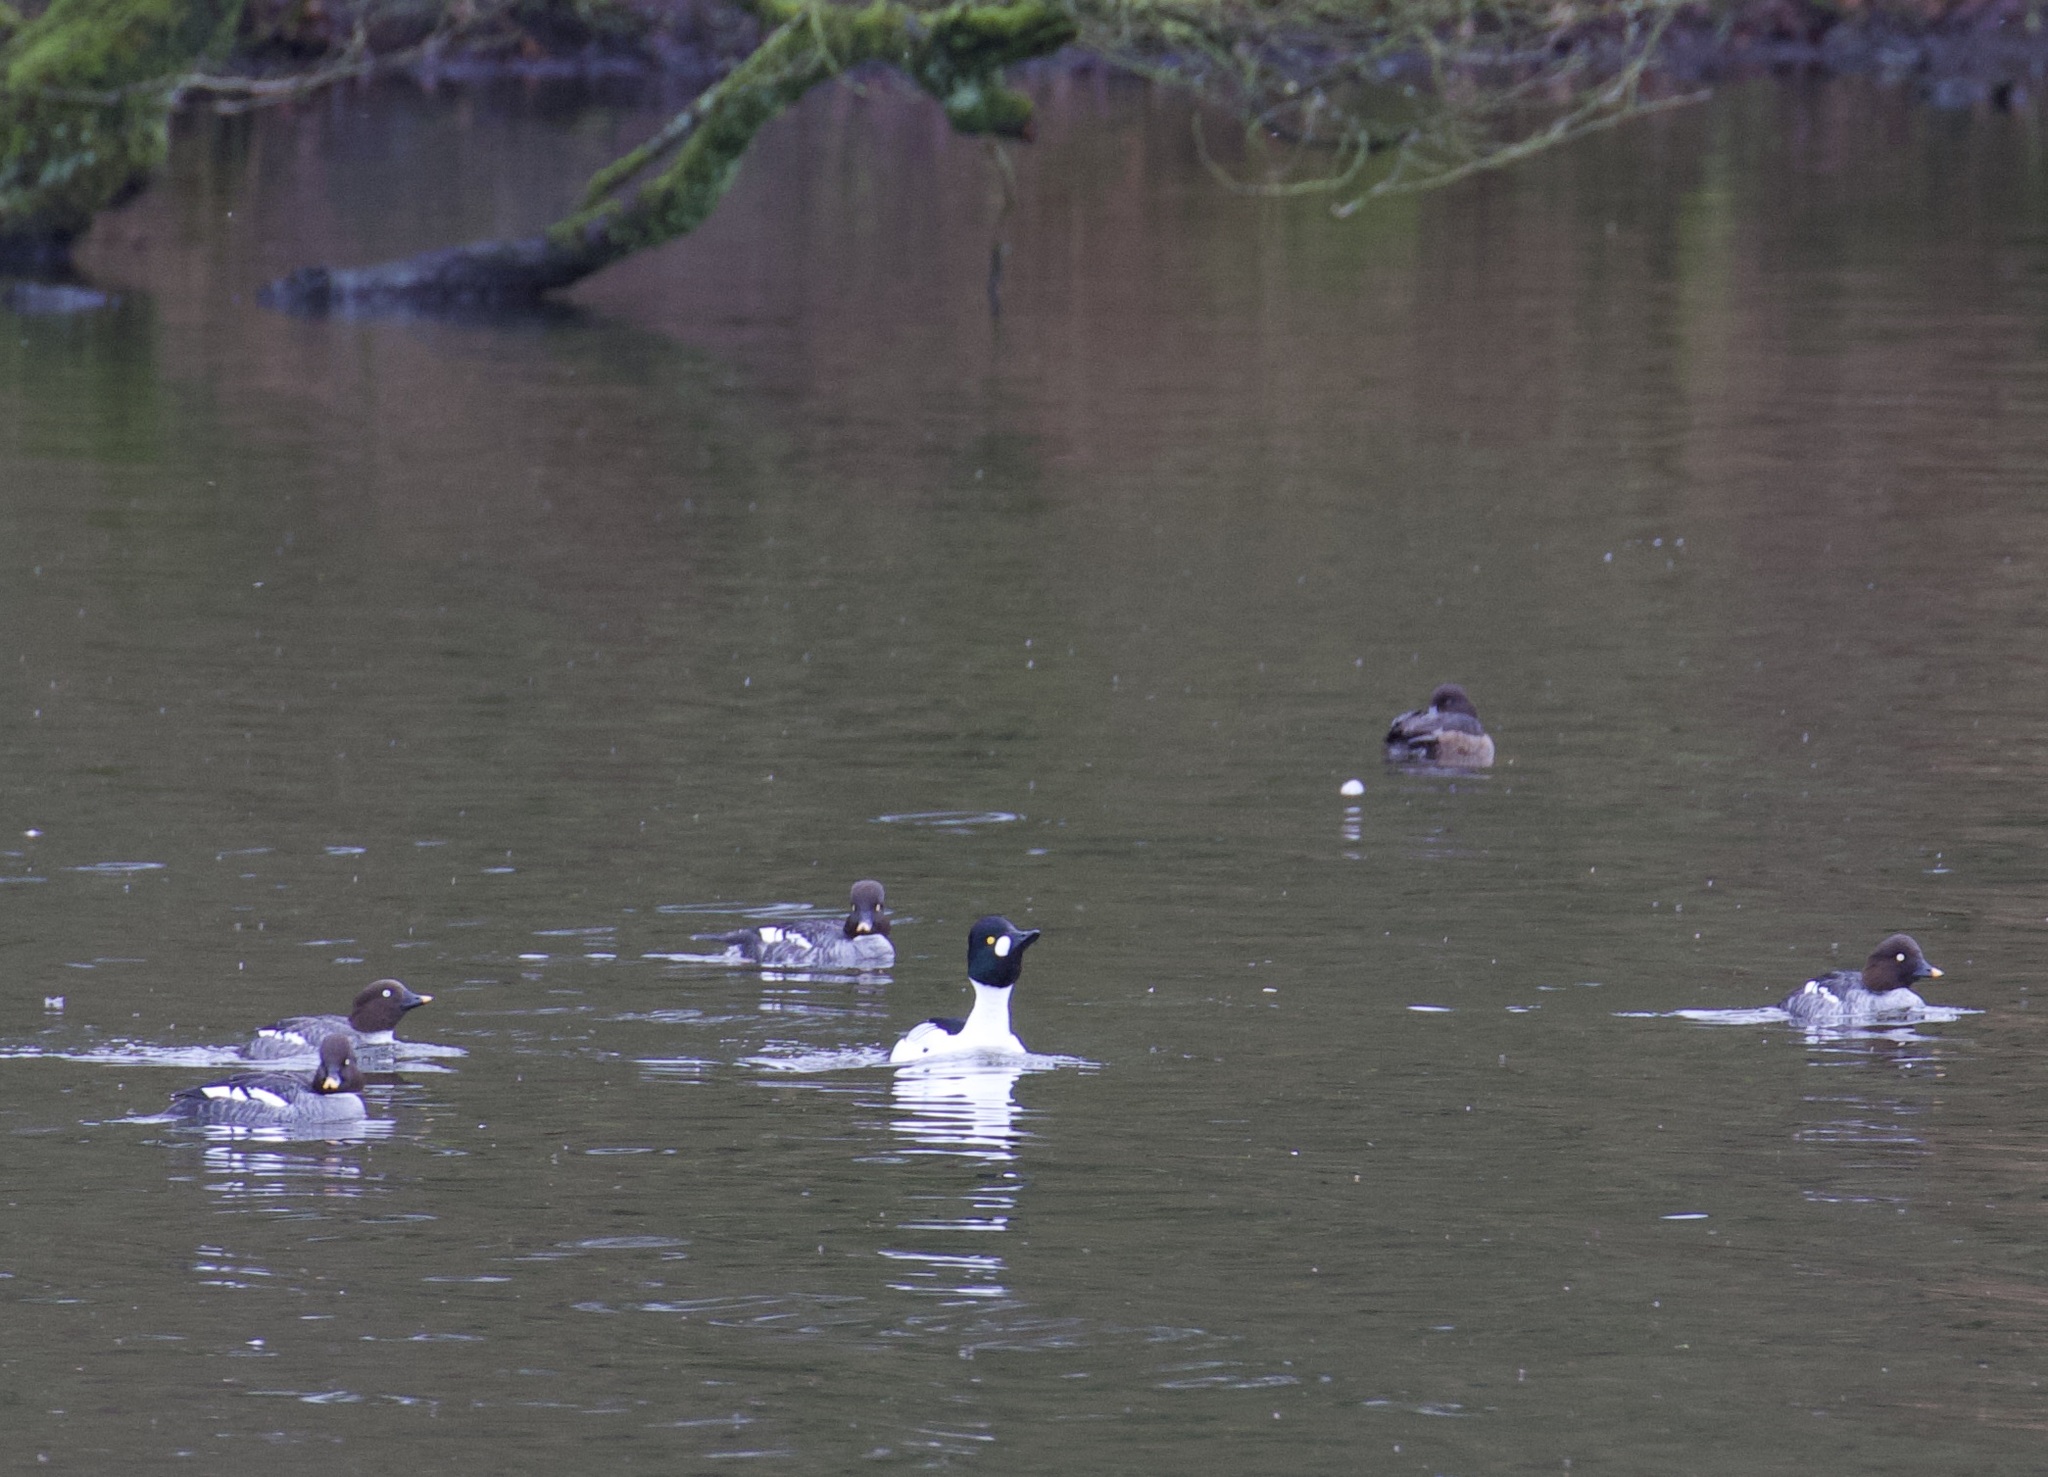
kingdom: Animalia
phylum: Chordata
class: Aves
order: Anseriformes
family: Anatidae
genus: Bucephala
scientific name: Bucephala clangula
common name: Common goldeneye
